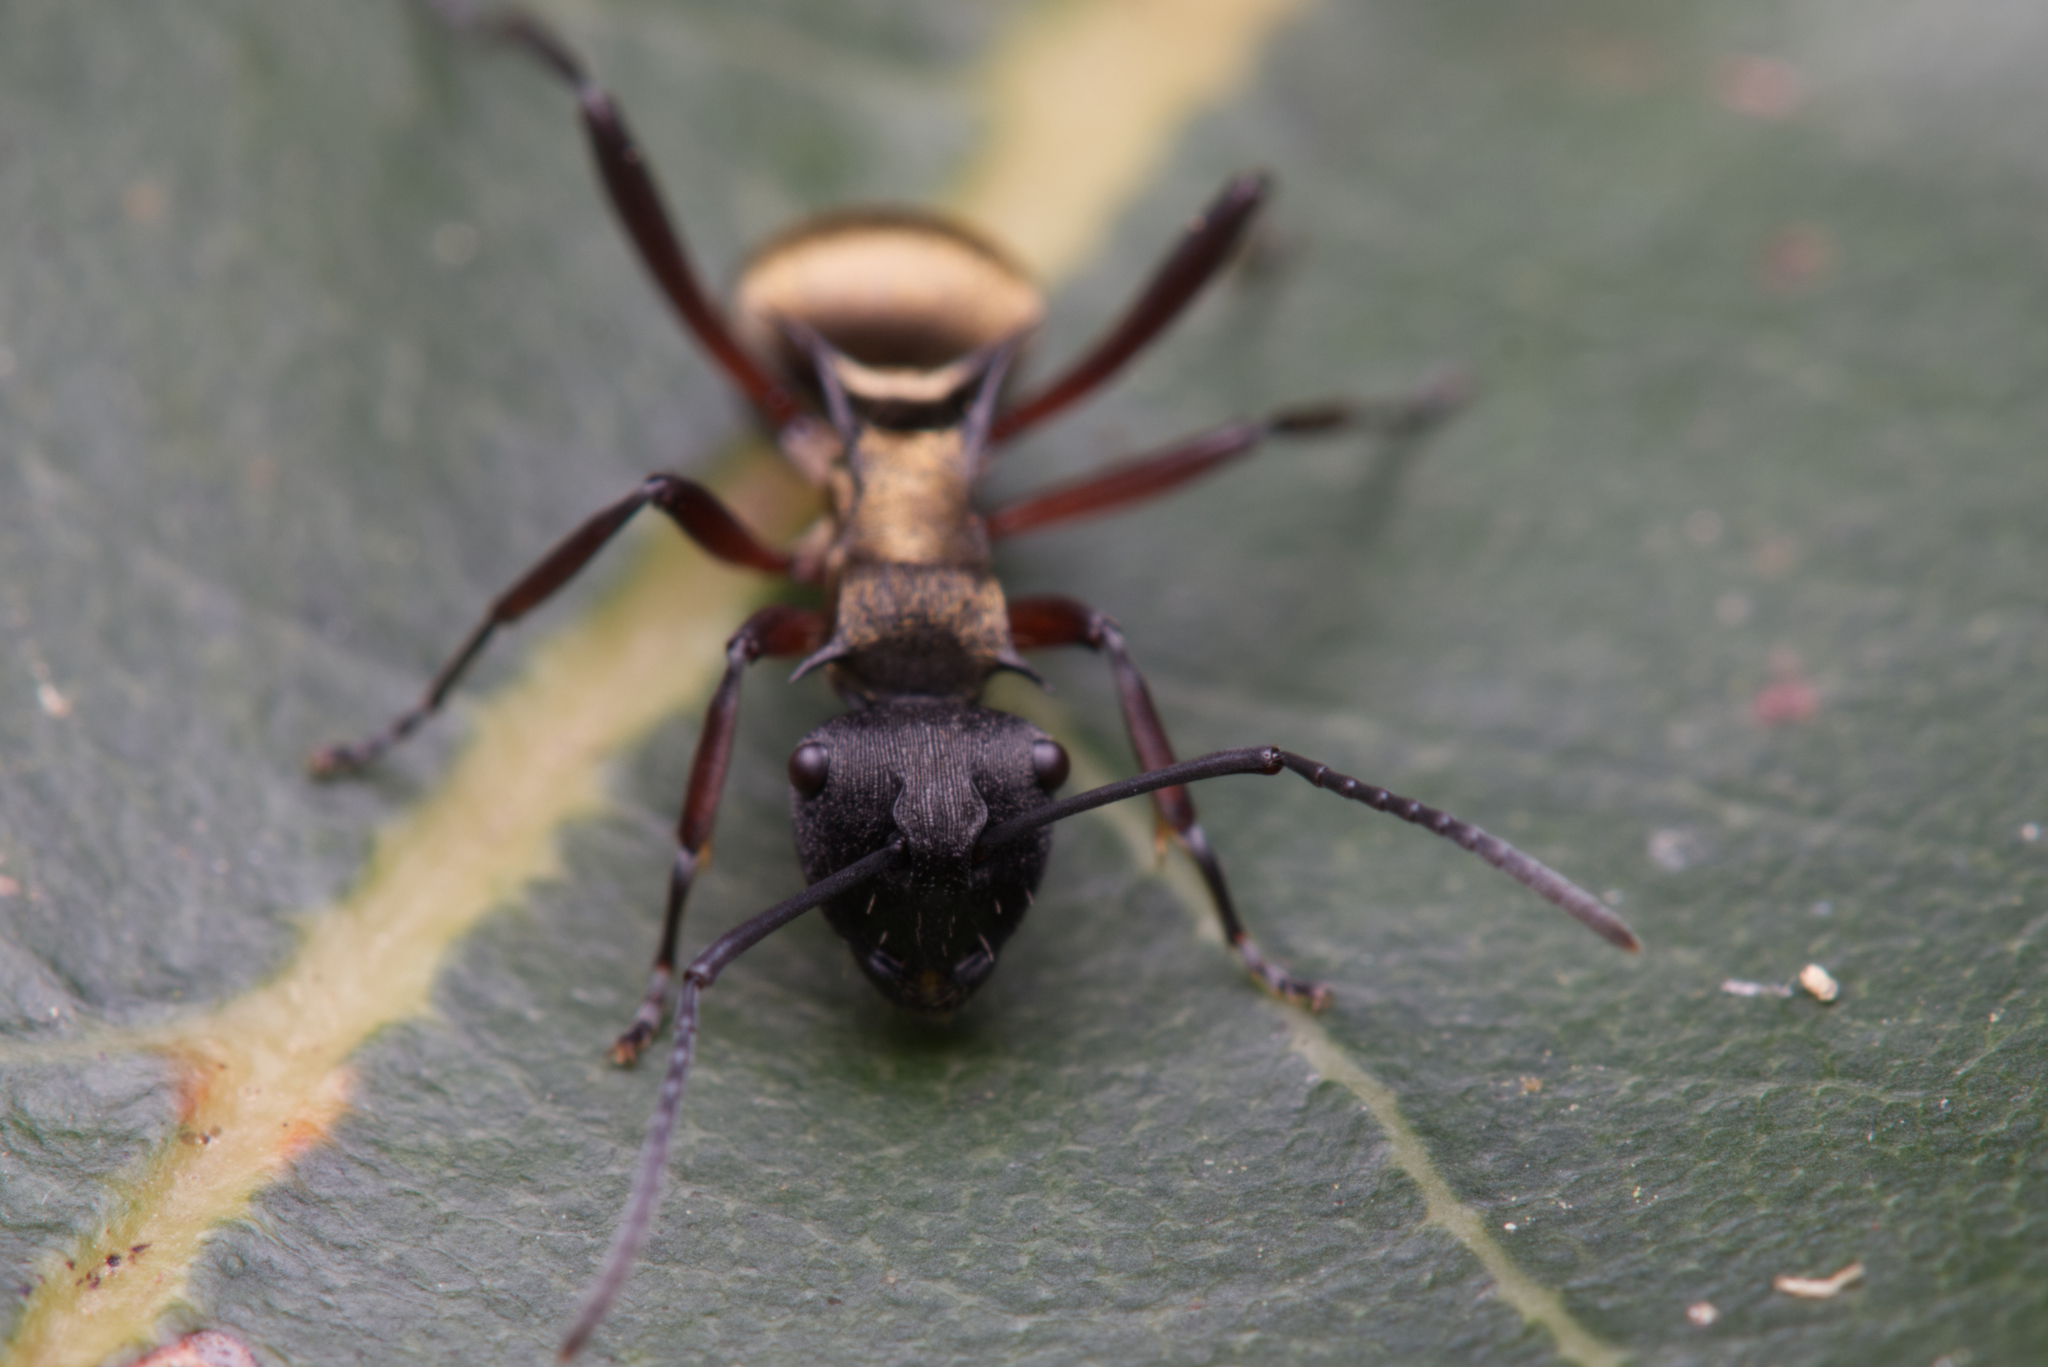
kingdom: Animalia
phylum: Arthropoda
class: Insecta
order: Hymenoptera
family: Formicidae
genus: Polyrhachis
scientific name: Polyrhachis rufifemur
